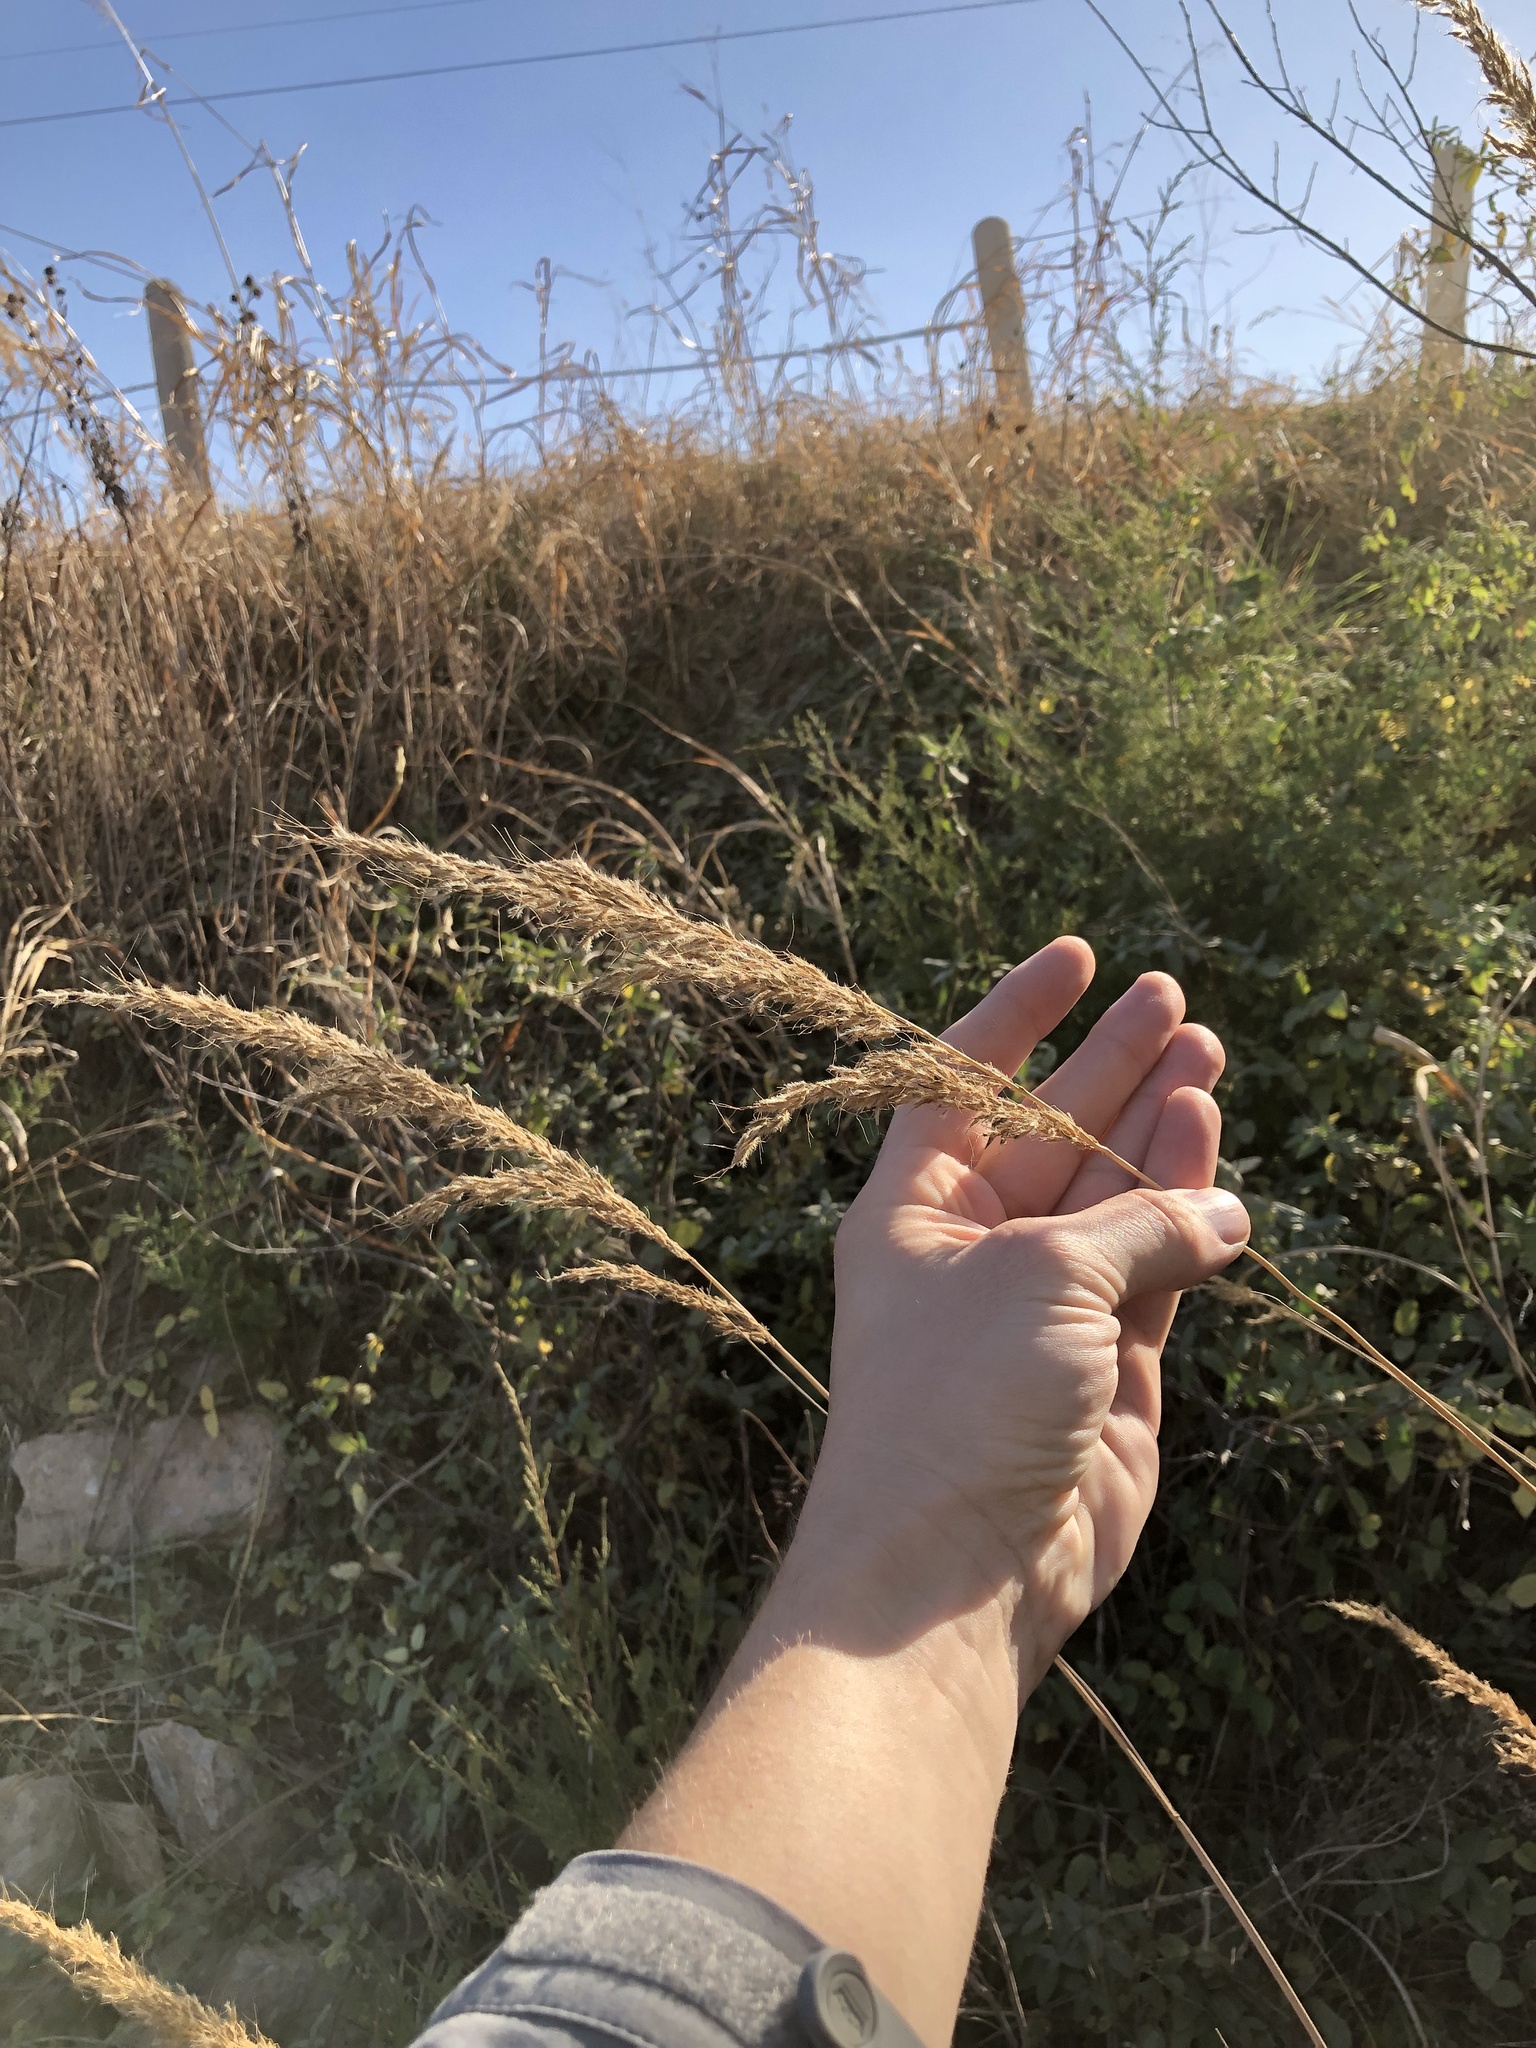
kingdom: Plantae
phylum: Tracheophyta
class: Liliopsida
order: Poales
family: Poaceae
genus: Sorghastrum
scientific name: Sorghastrum nutans
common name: Indian grass
